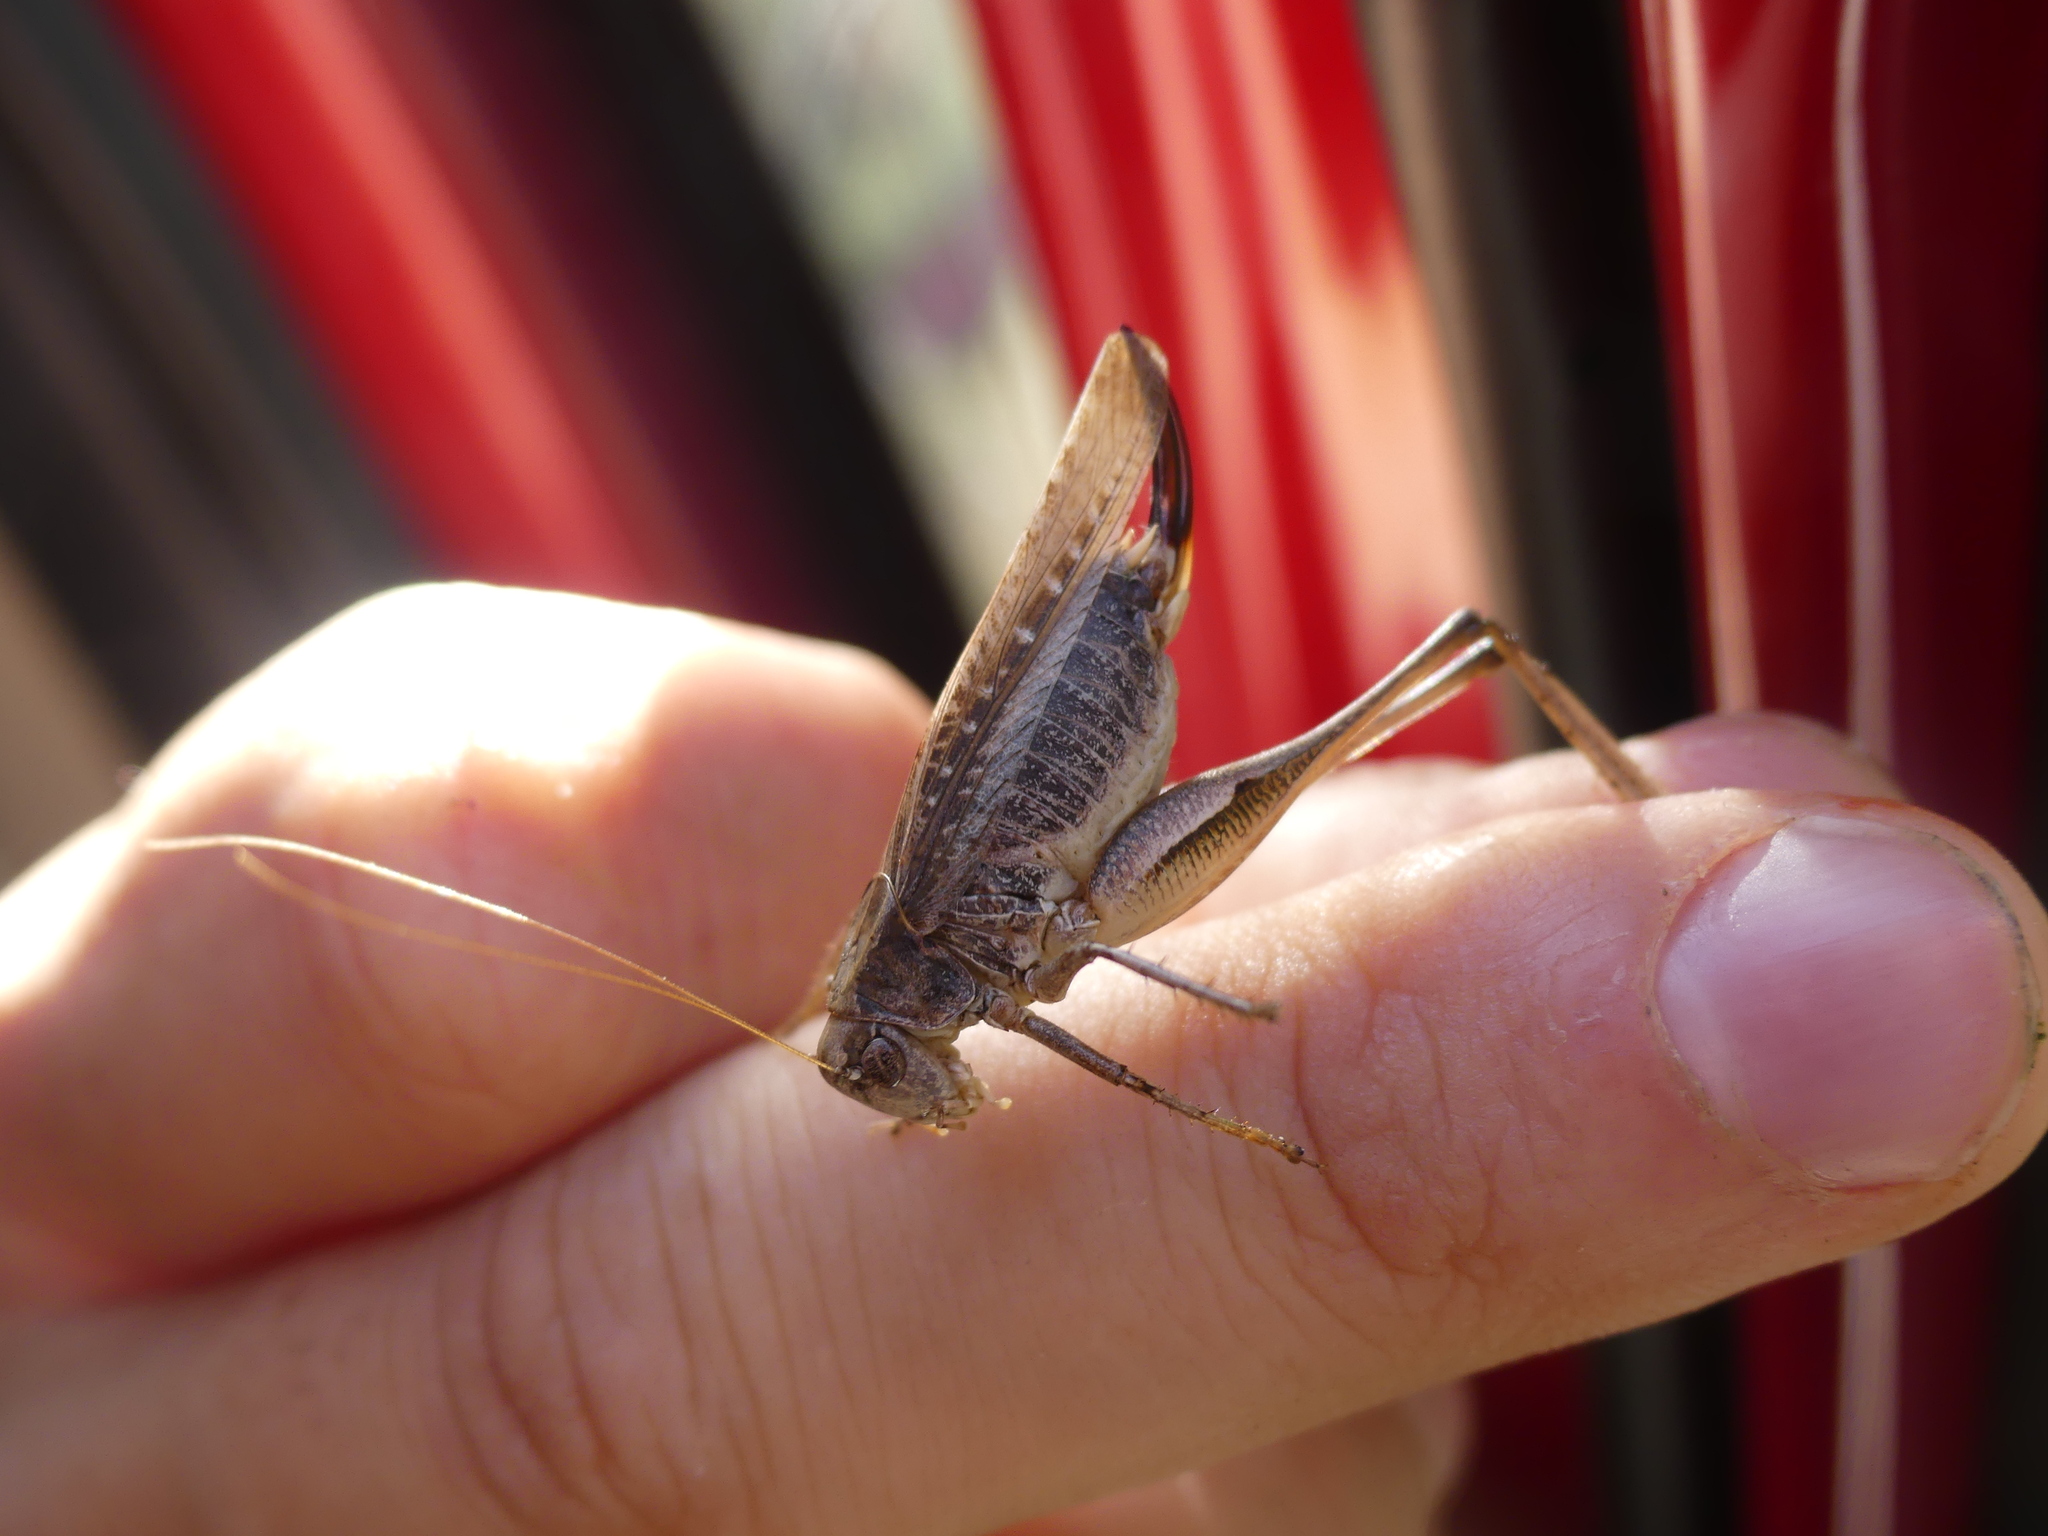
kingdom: Animalia
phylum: Arthropoda
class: Insecta
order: Orthoptera
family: Tettigoniidae
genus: Platycleis
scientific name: Platycleis albopunctata
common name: Grey bush-cricket
